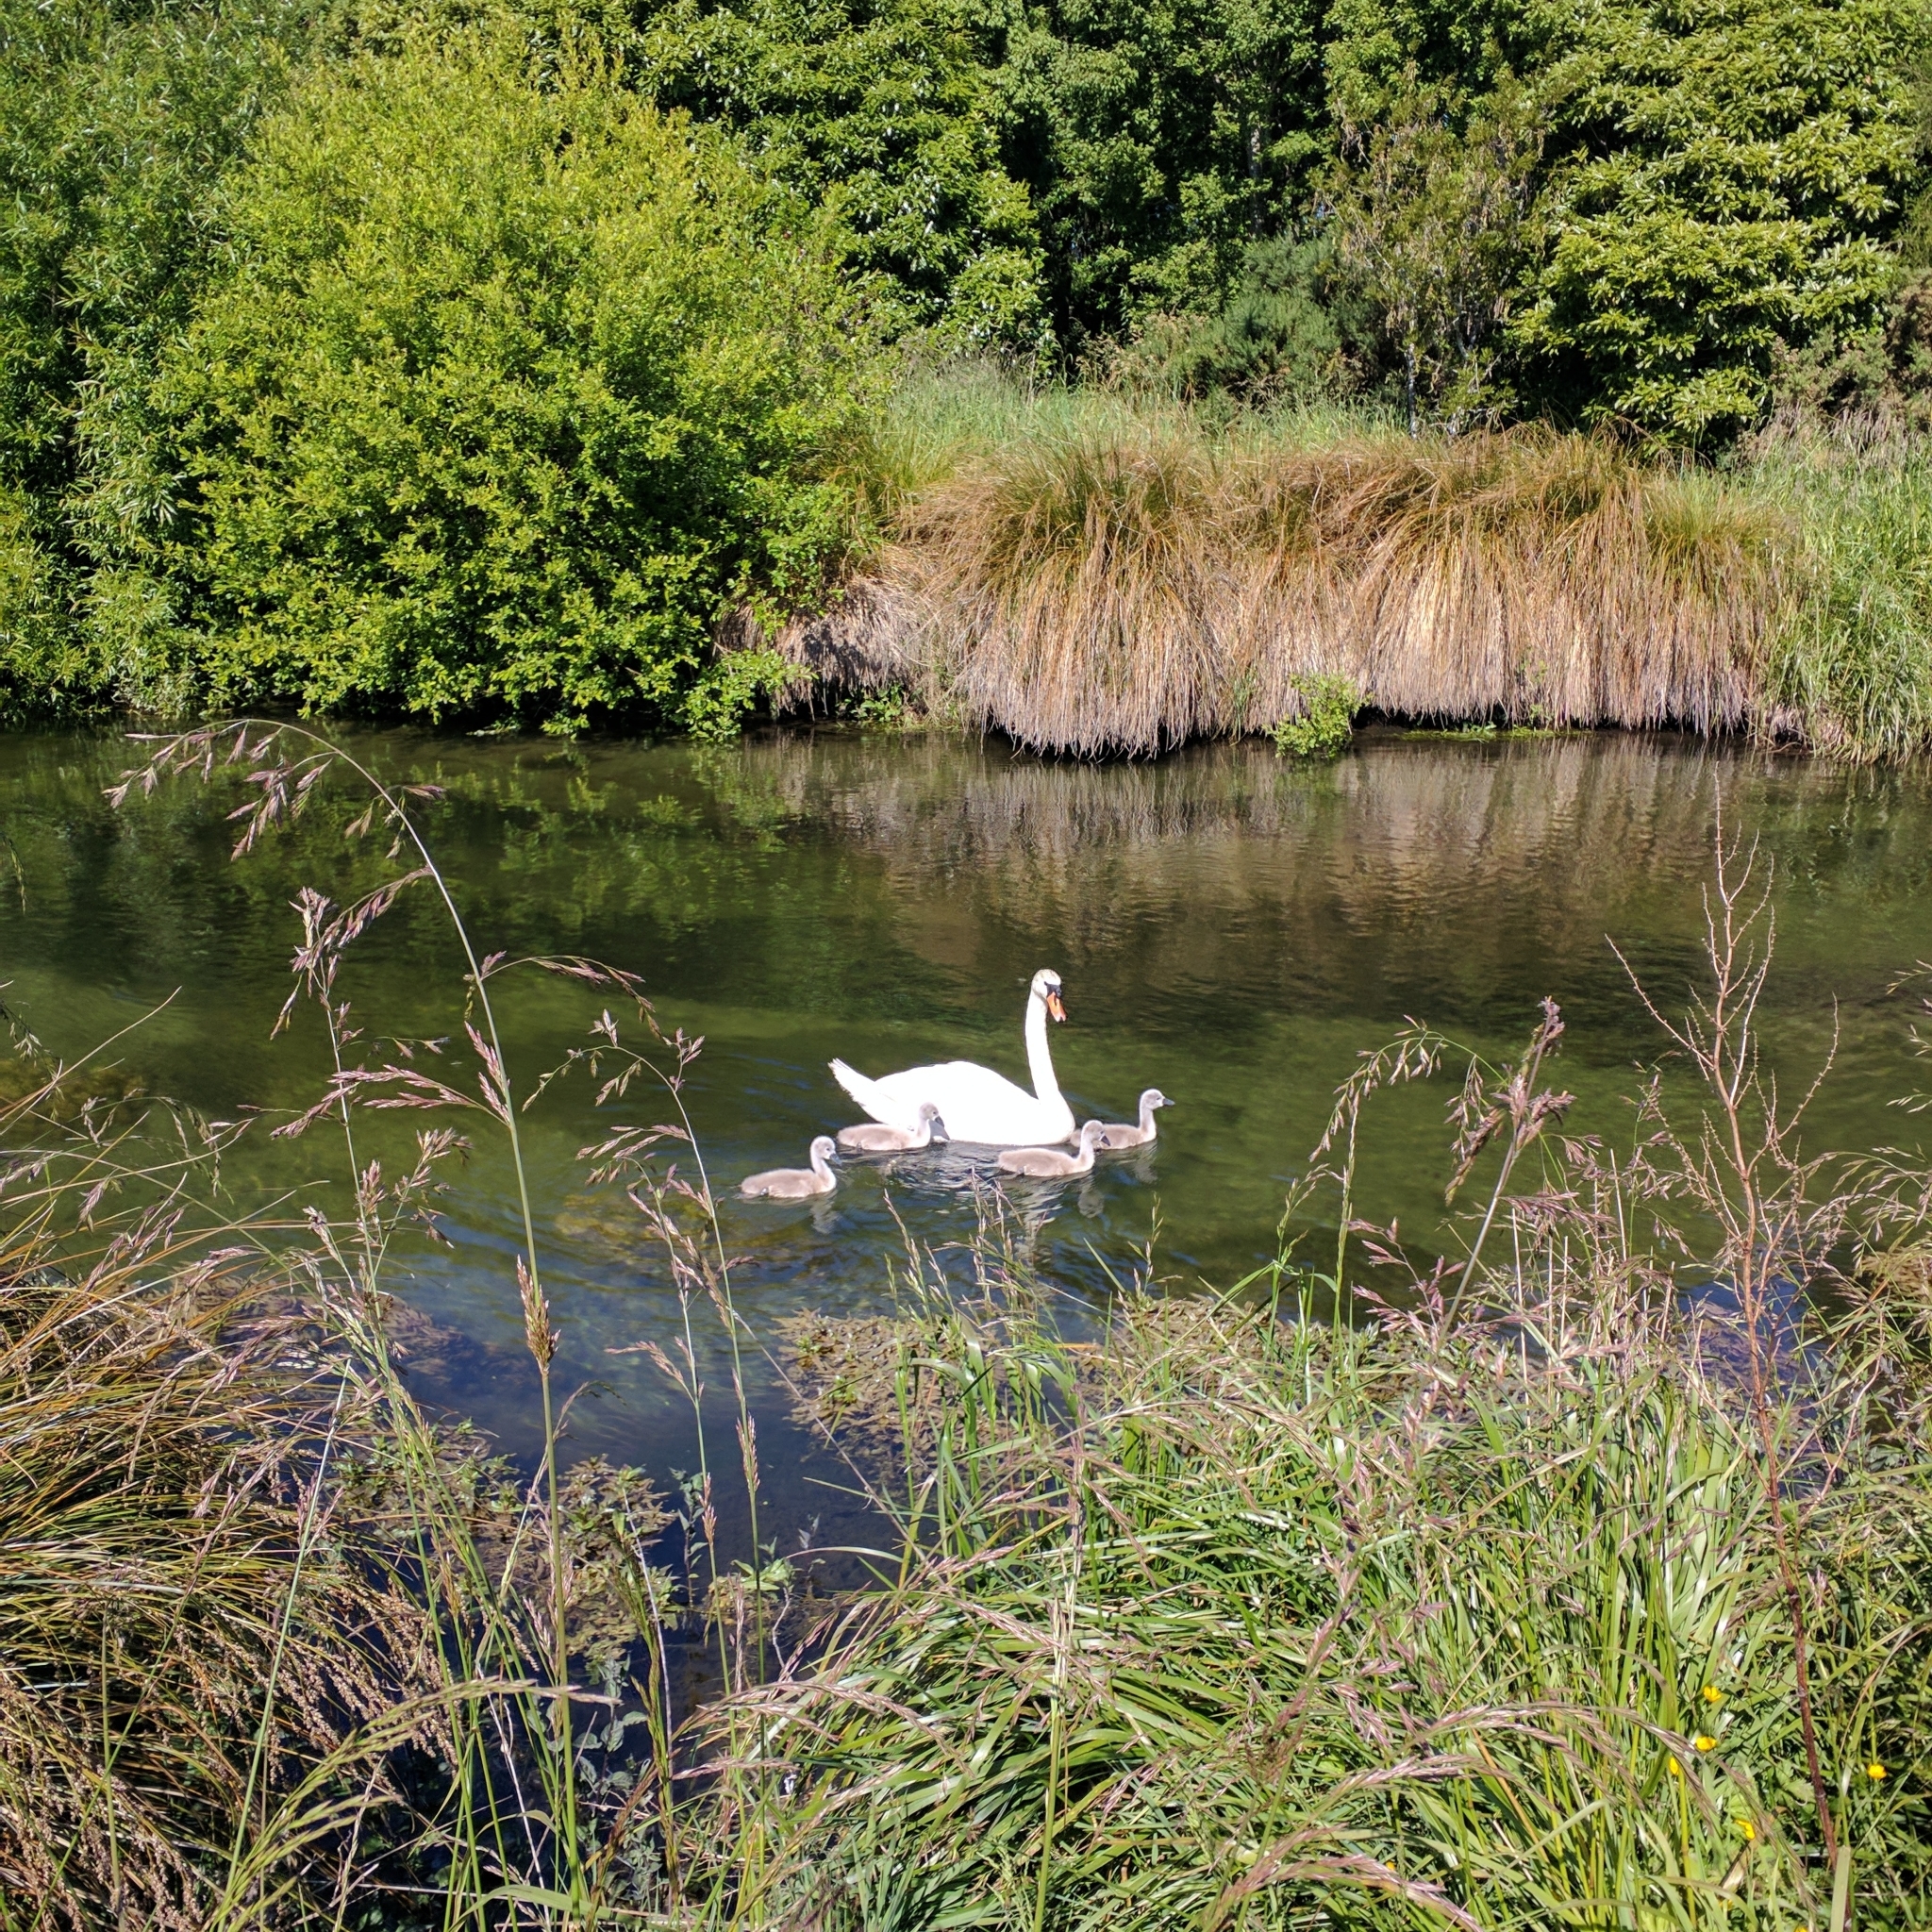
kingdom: Animalia
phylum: Chordata
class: Aves
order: Anseriformes
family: Anatidae
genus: Cygnus
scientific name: Cygnus olor
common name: Mute swan
